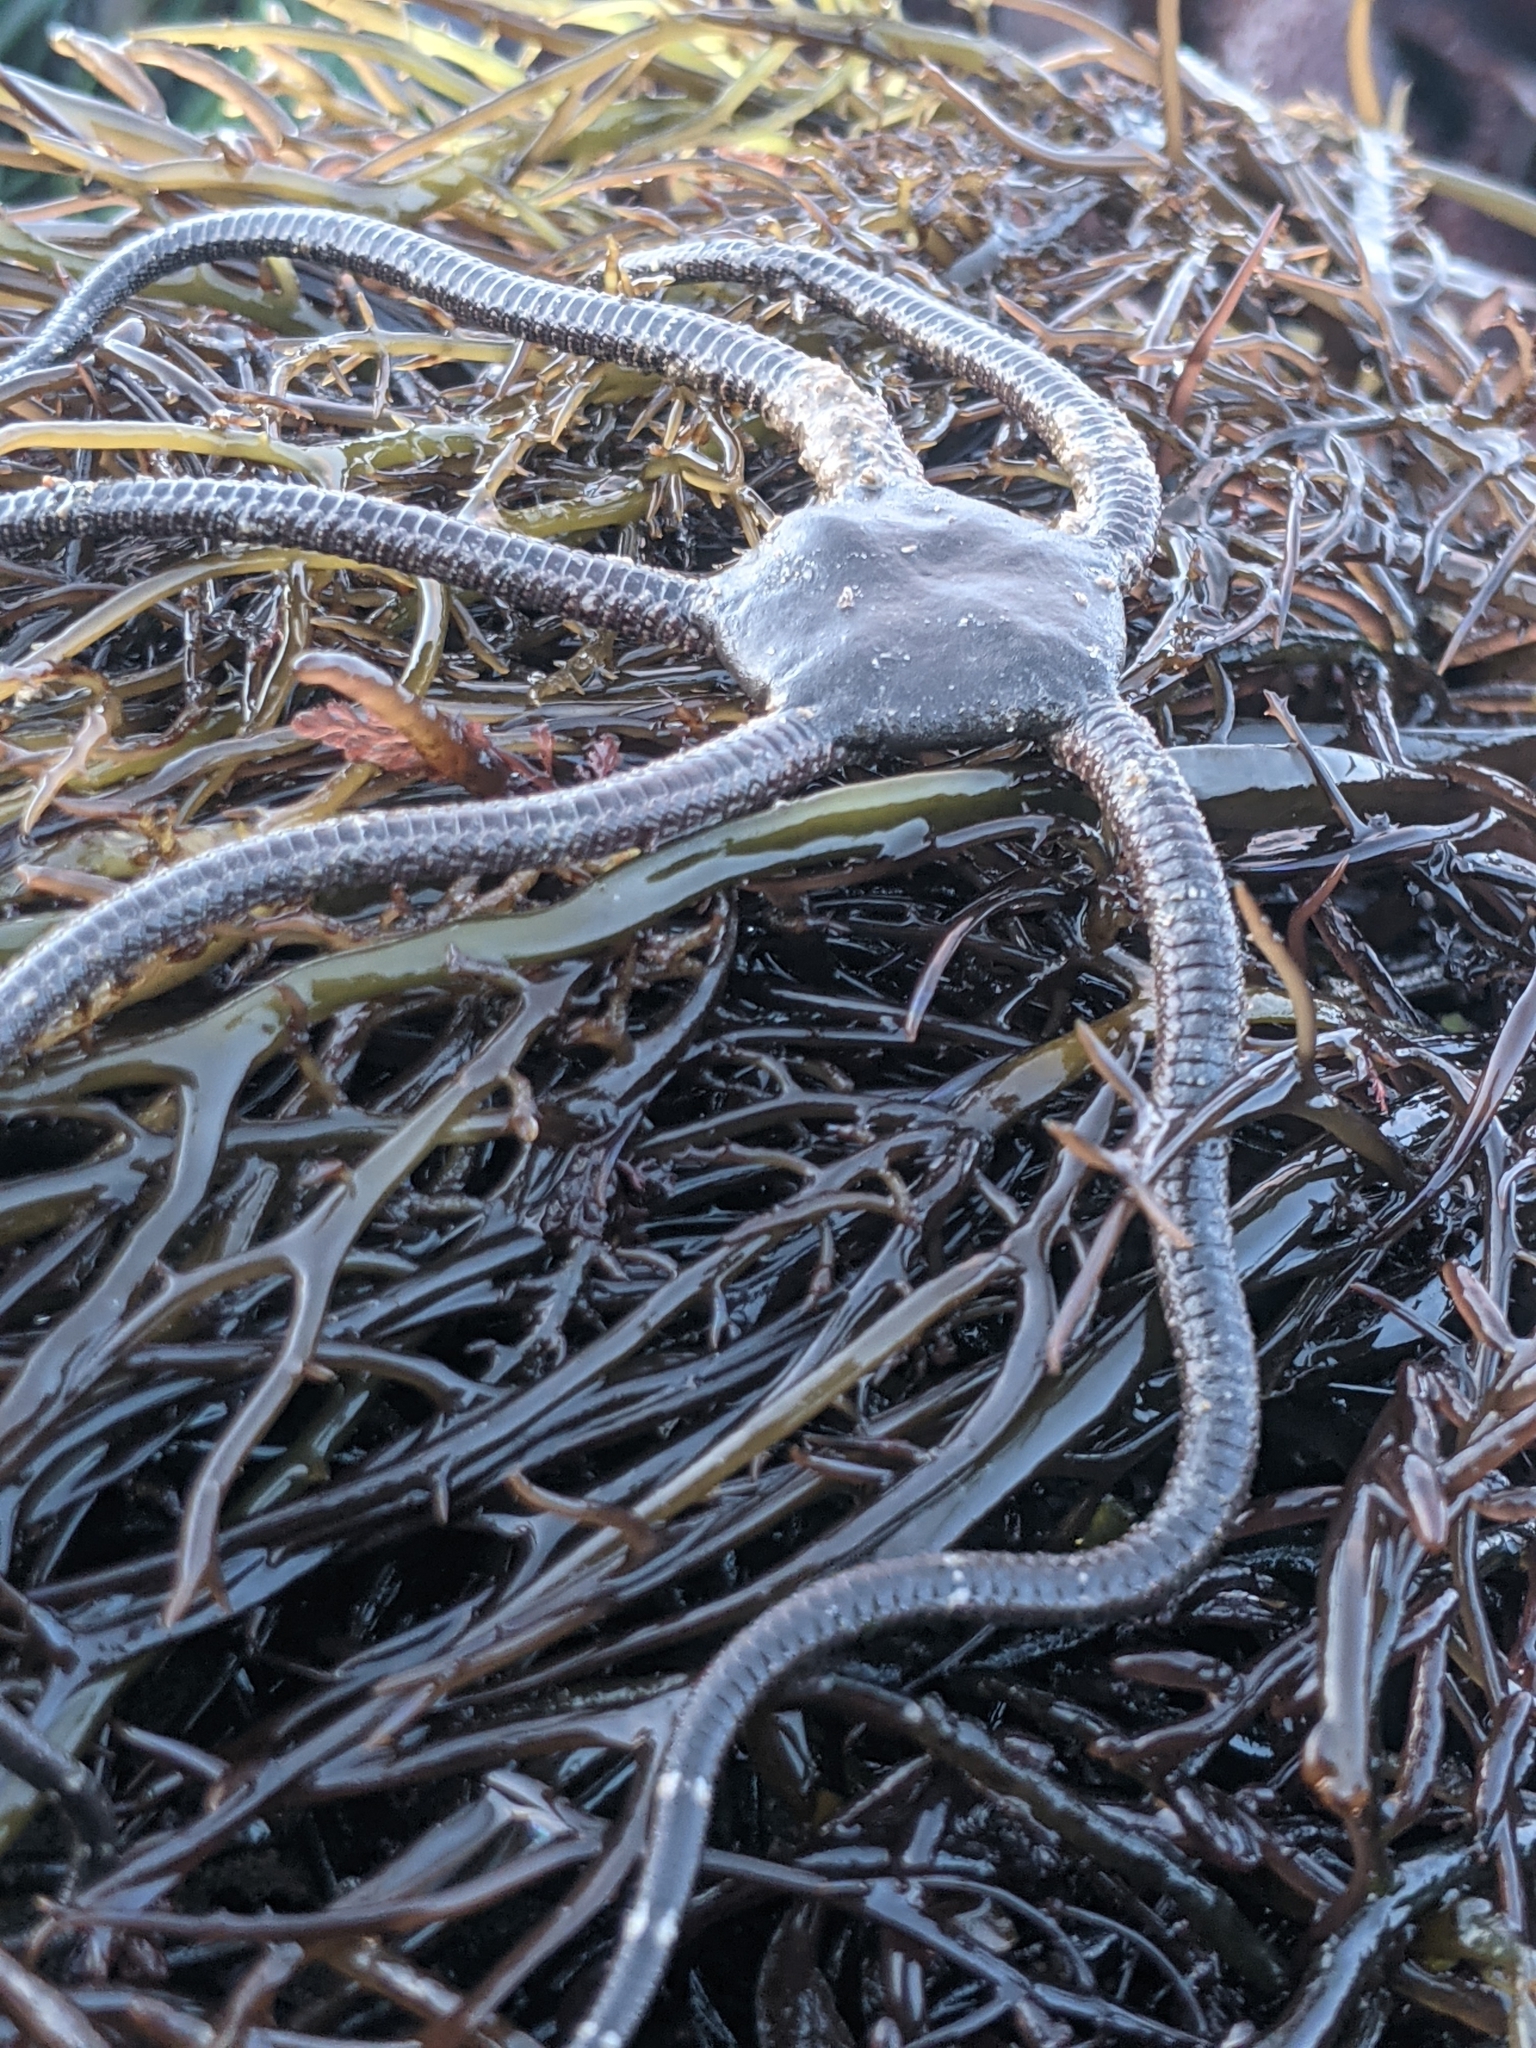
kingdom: Animalia
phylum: Echinodermata
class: Ophiuroidea
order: Ophiacanthida
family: Ophiodermatidae
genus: Ophioderma
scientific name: Ophioderma panamense
